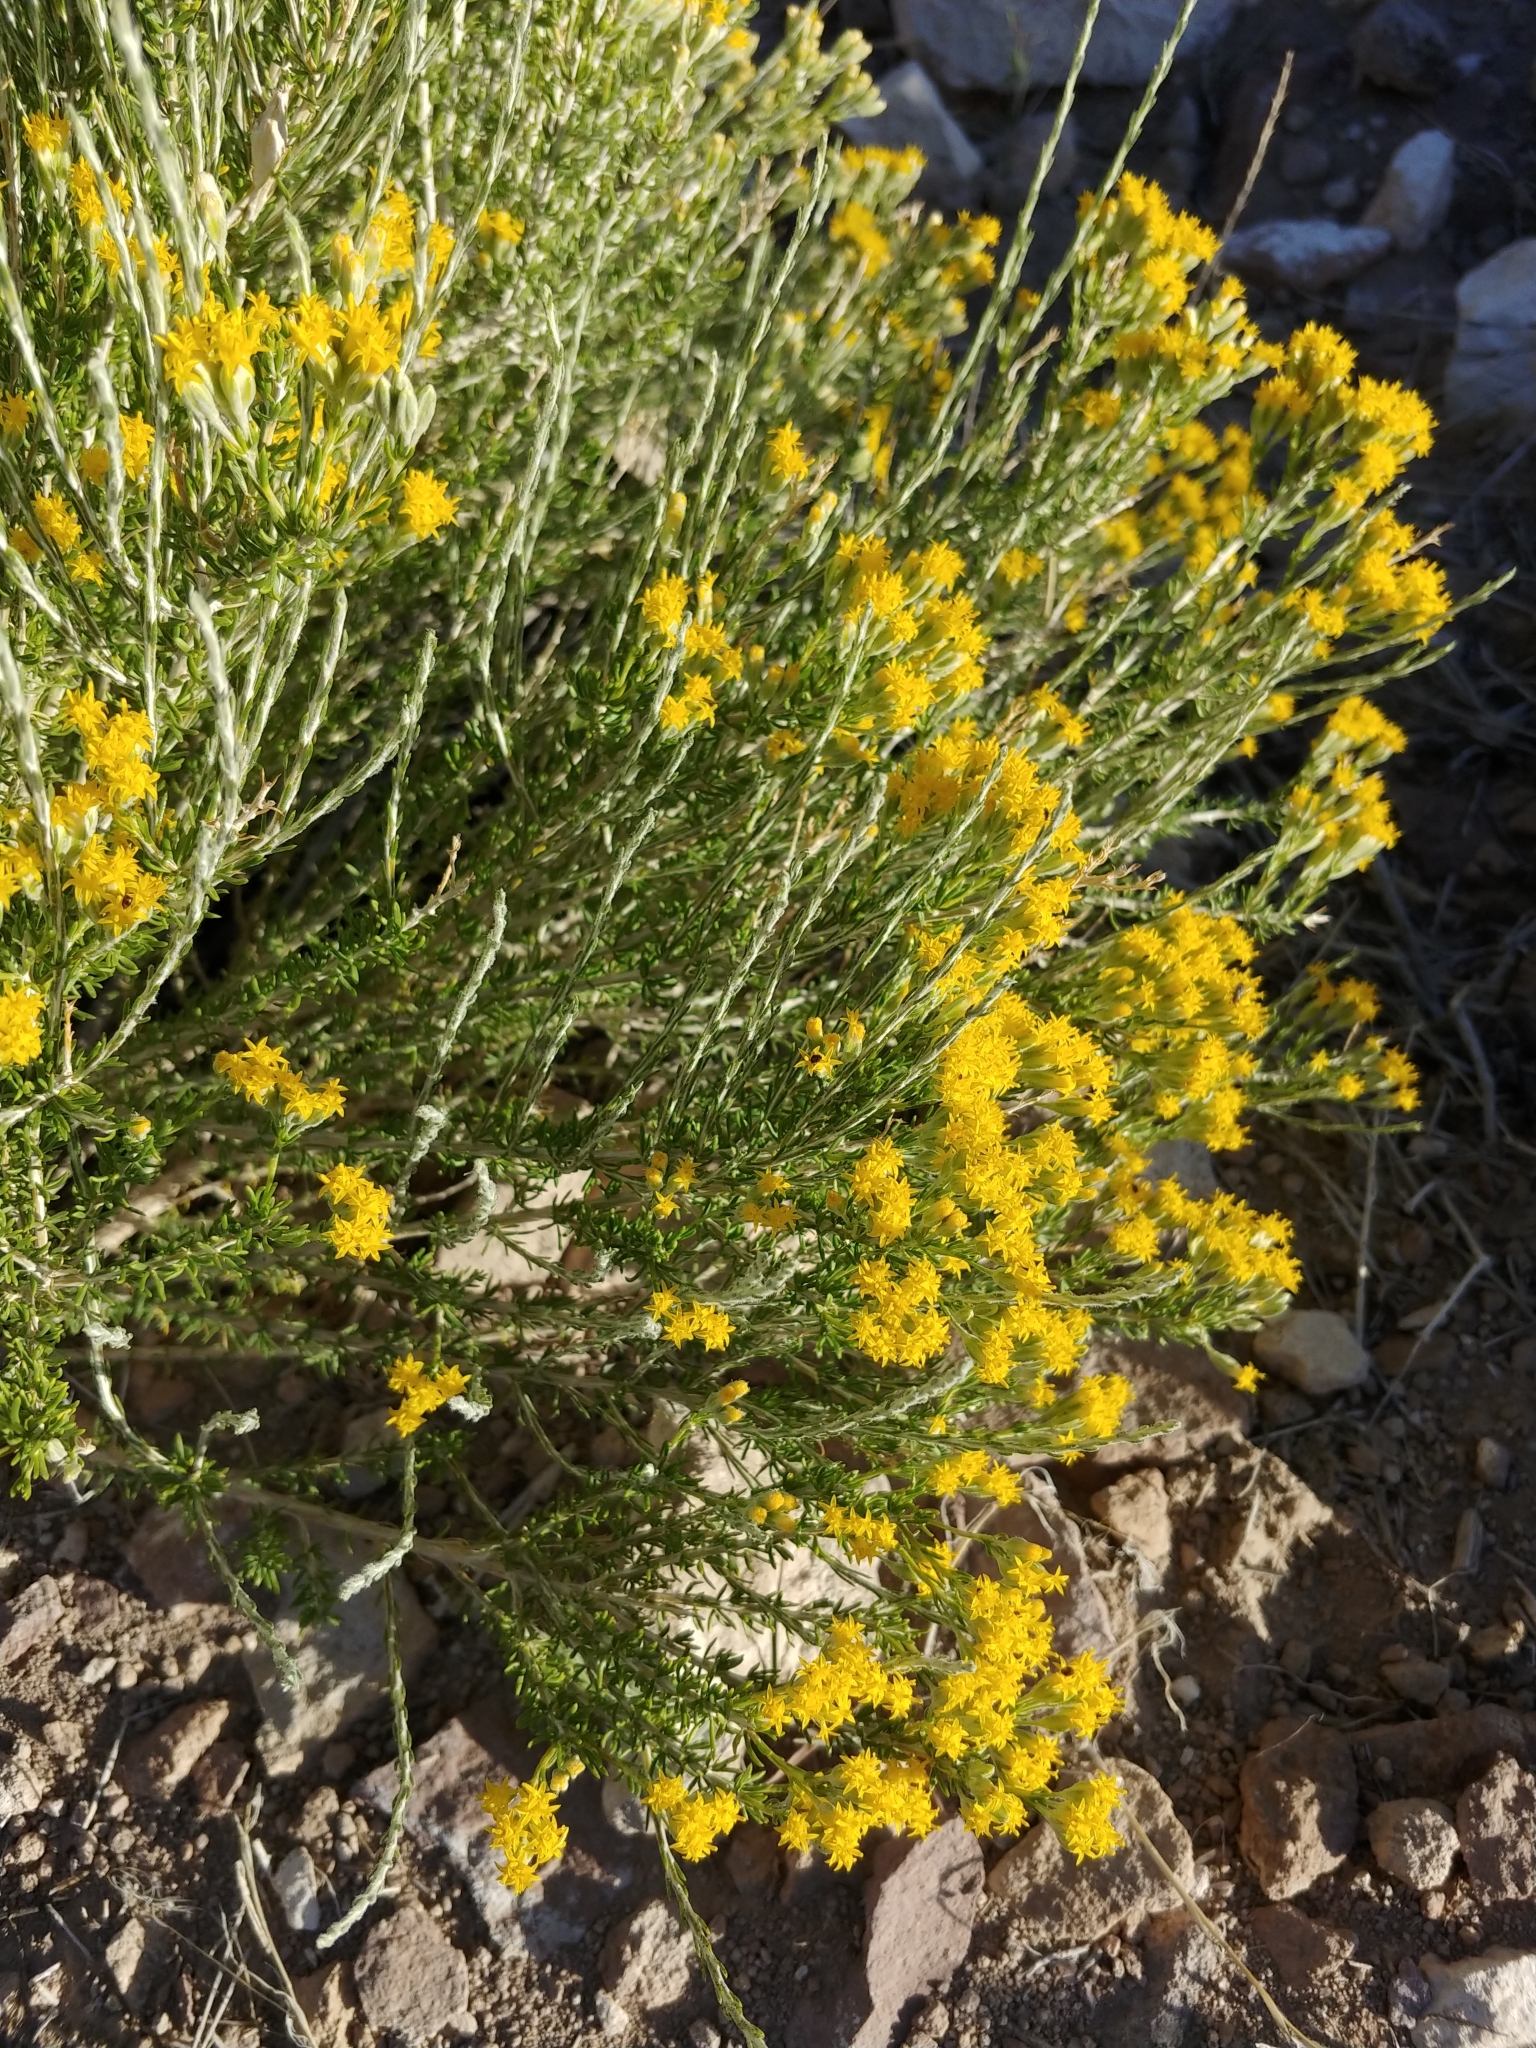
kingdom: Plantae
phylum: Tracheophyta
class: Magnoliopsida
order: Asterales
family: Asteraceae
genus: Tetradymia
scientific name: Tetradymia glabrata
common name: Smooth tetradymia
